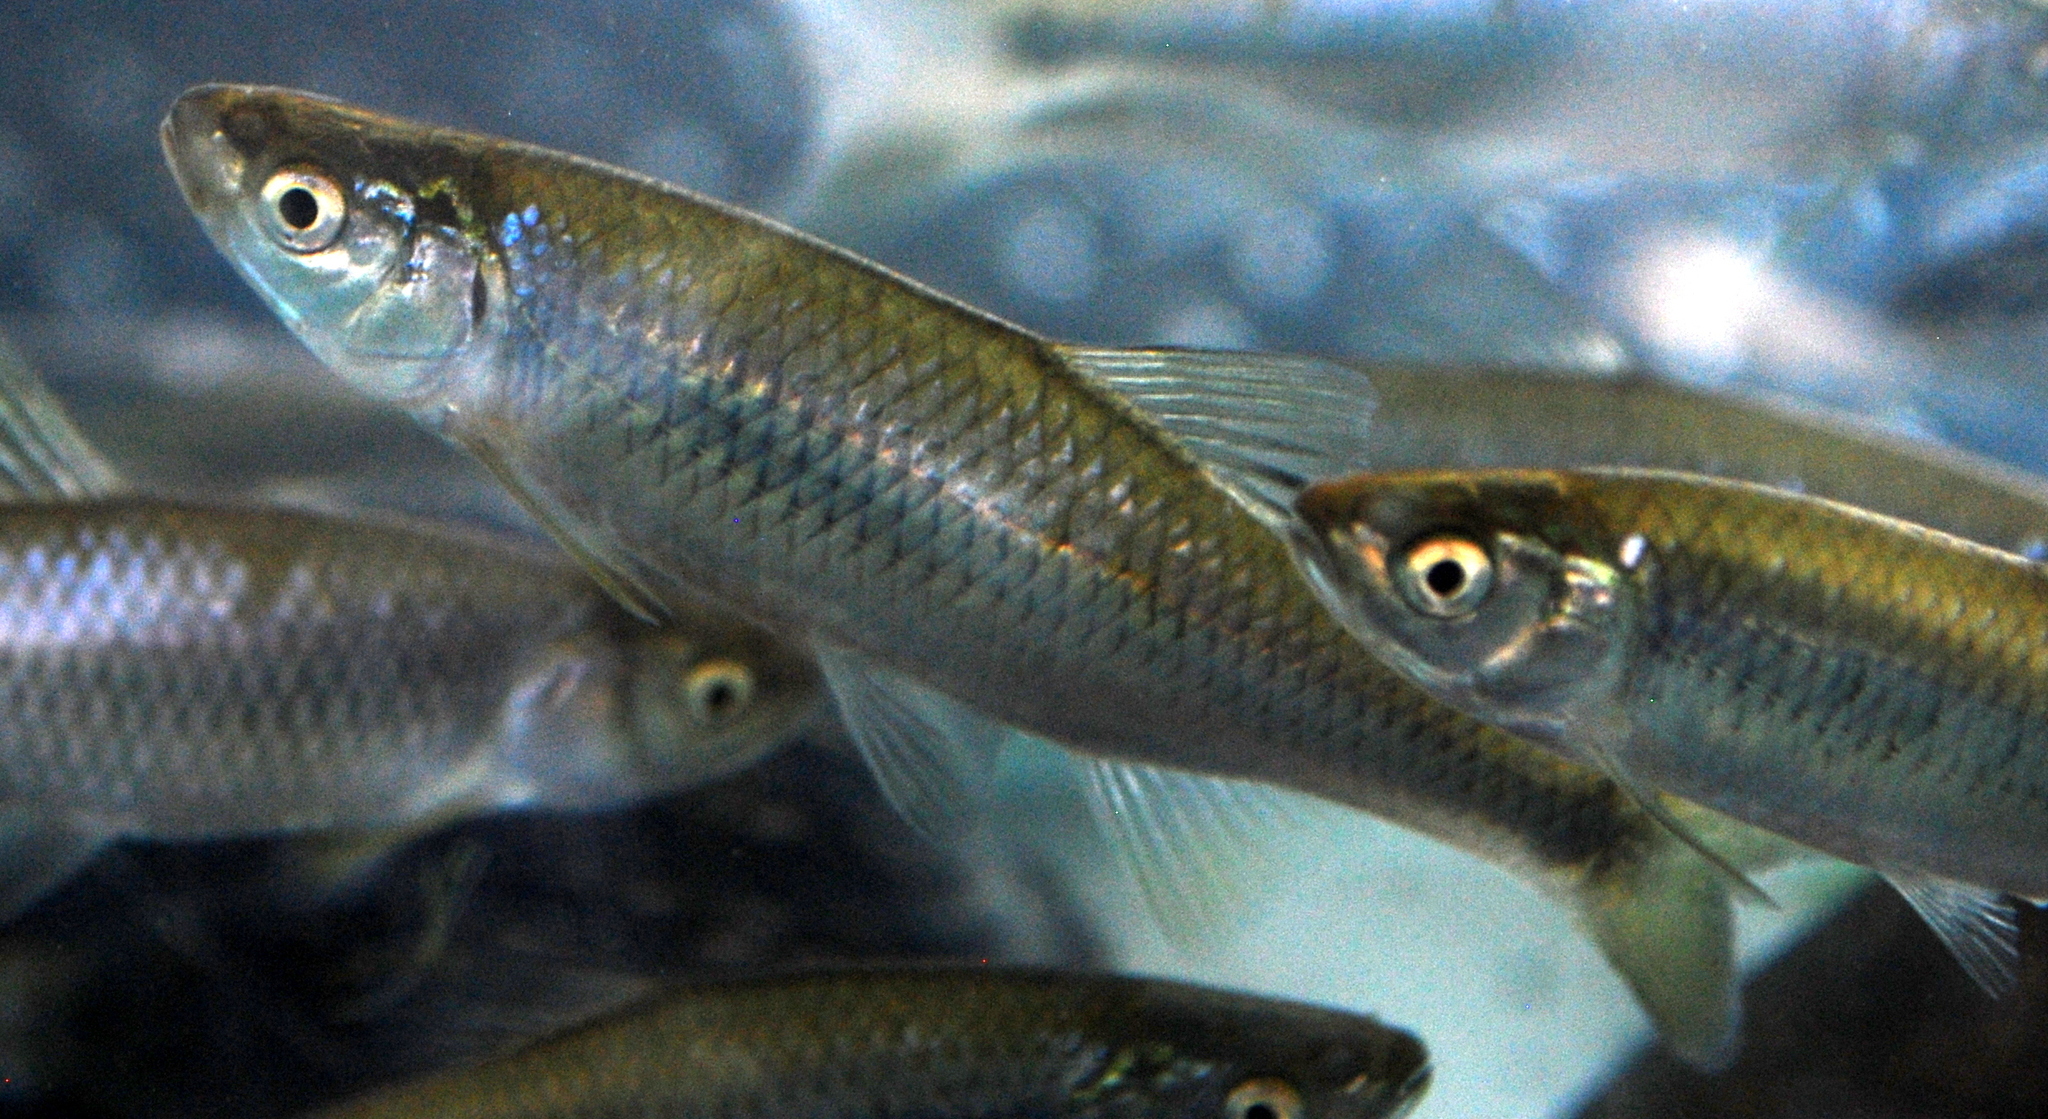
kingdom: Animalia
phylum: Chordata
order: Cypriniformes
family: Cyprinidae
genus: Cyprinella
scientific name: Cyprinella spiloptera
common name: Spotfin shiner
